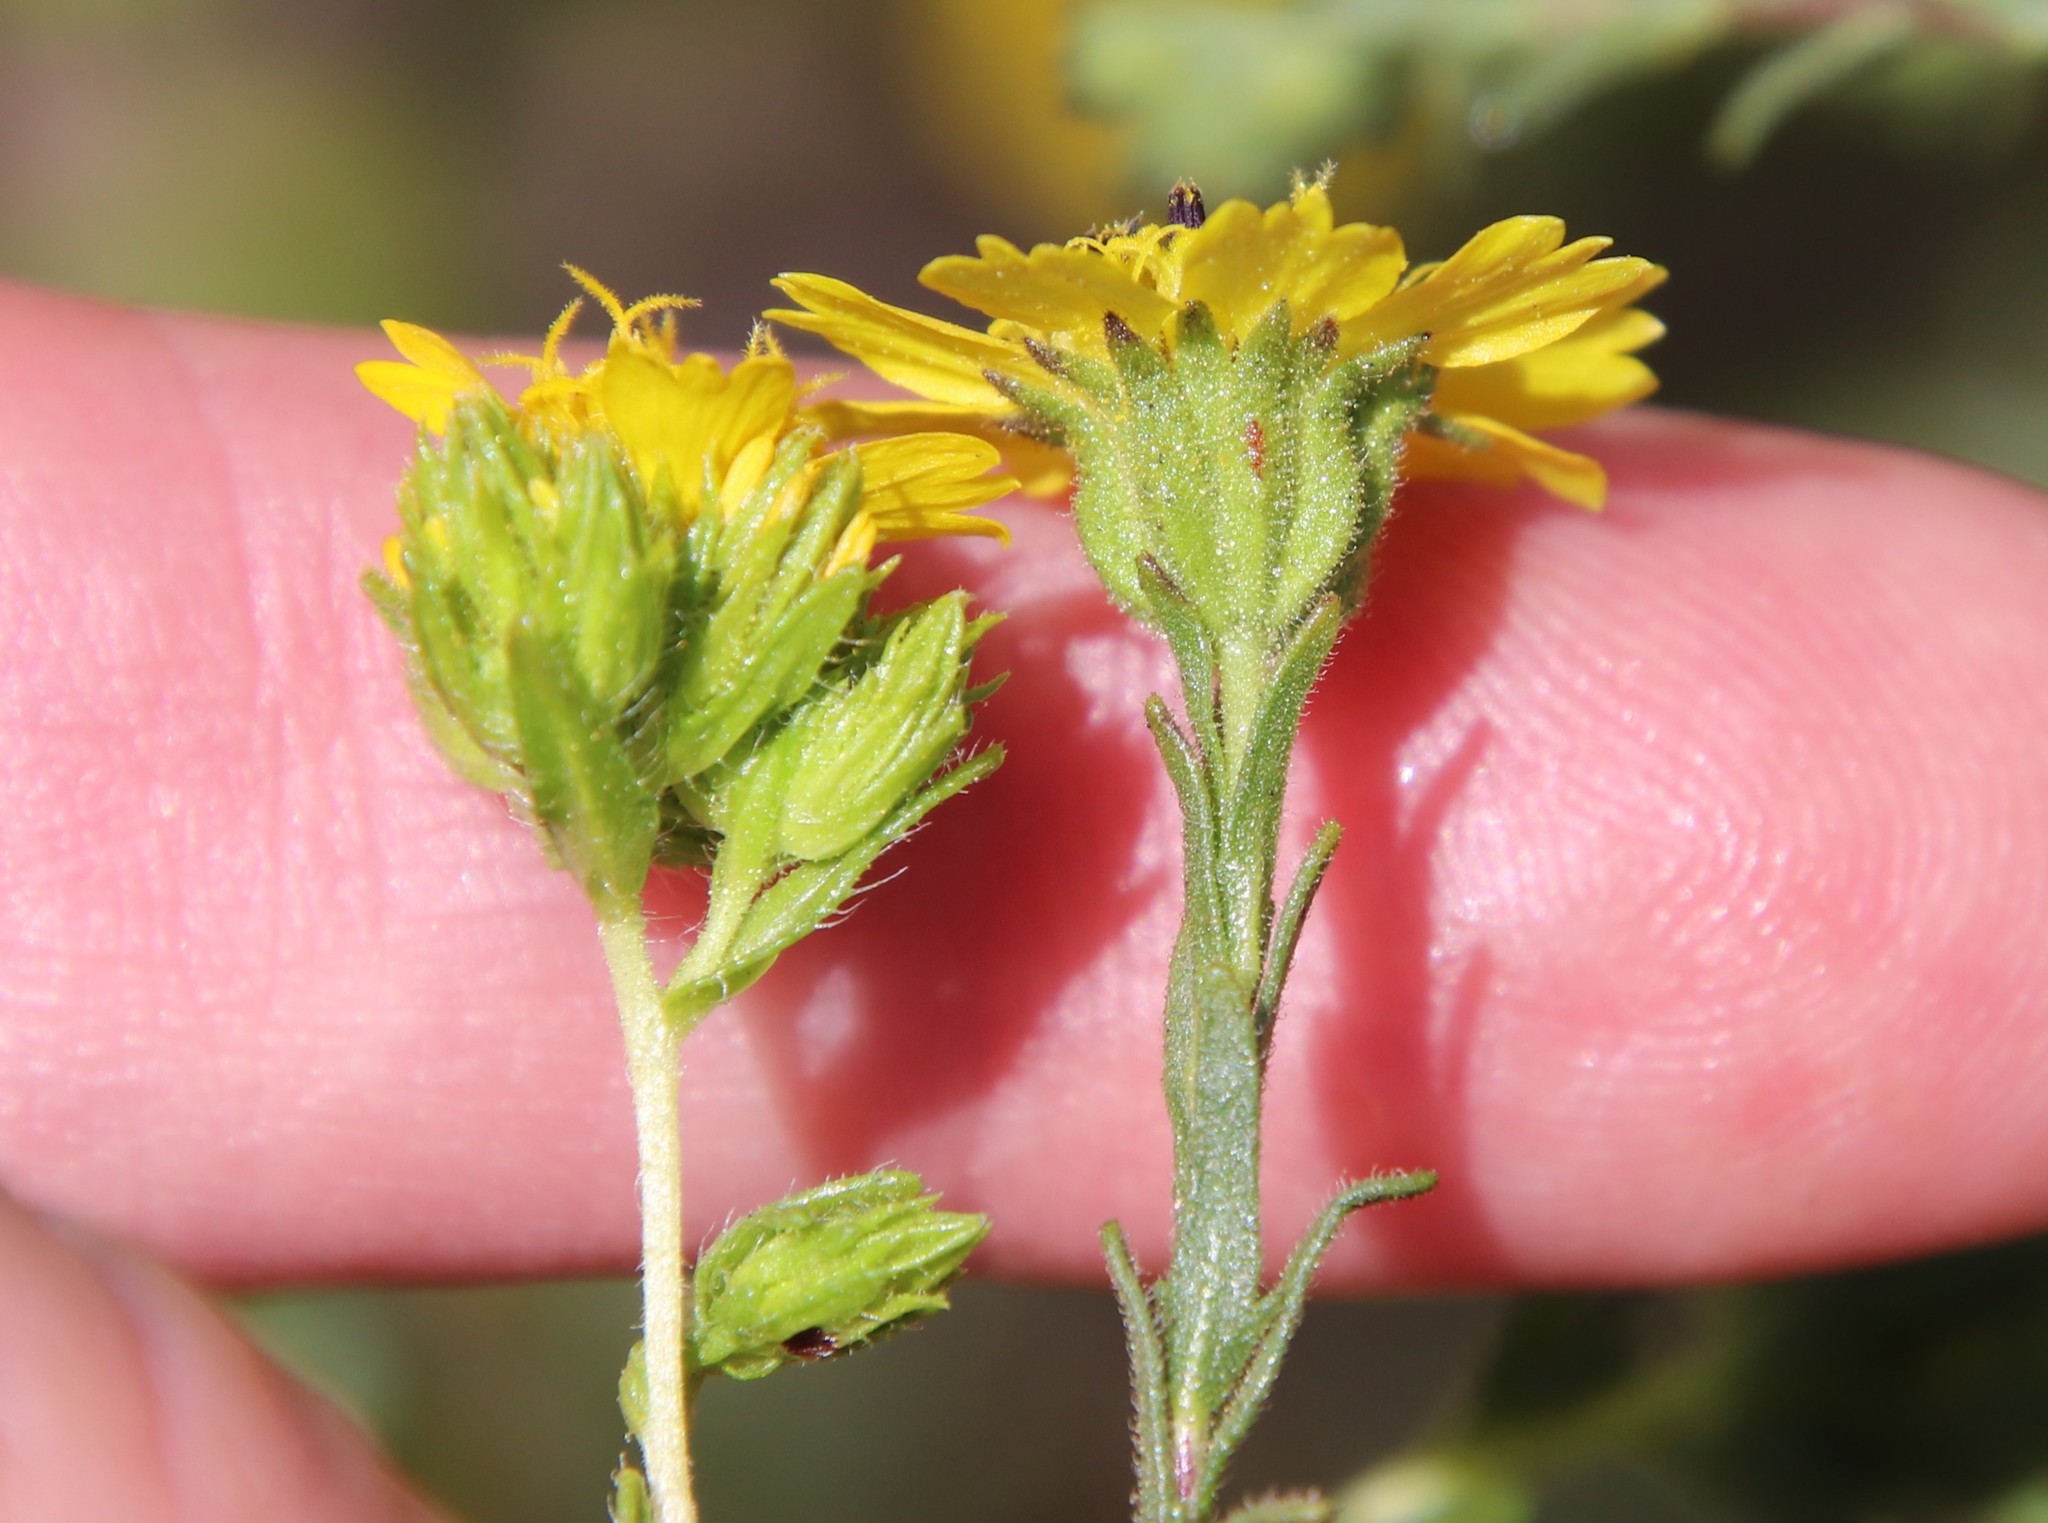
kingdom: Plantae
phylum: Tracheophyta
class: Magnoliopsida
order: Asterales
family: Asteraceae
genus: Deinandra
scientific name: Deinandra fasciculata
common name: Clustered tarweed
